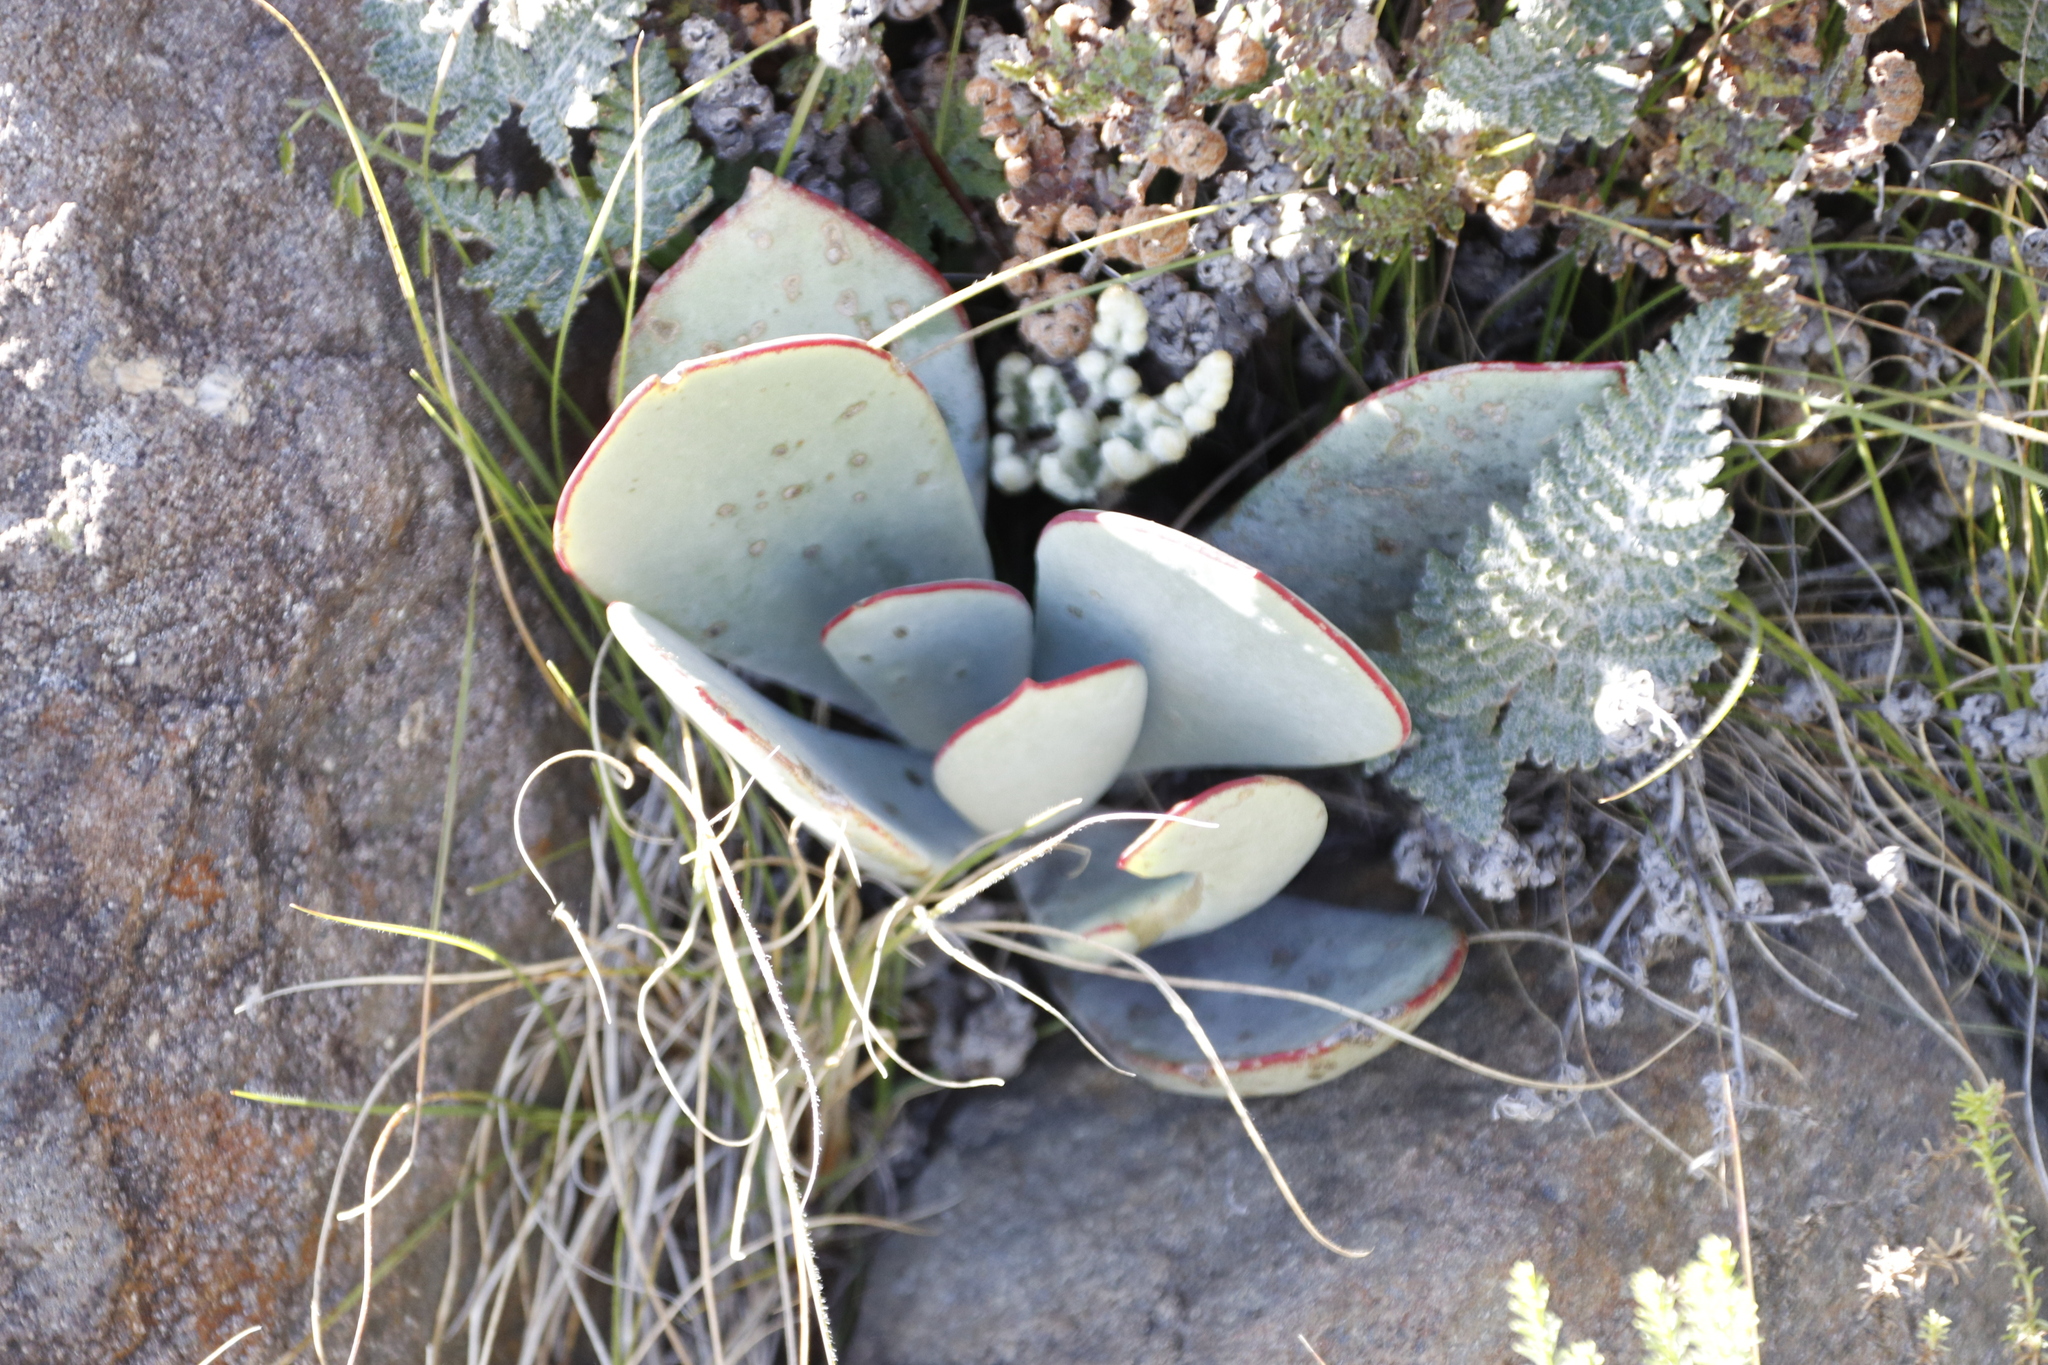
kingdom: Plantae
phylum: Tracheophyta
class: Magnoliopsida
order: Saxifragales
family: Crassulaceae
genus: Cotyledon
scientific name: Cotyledon orbiculata
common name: Pig's ear
